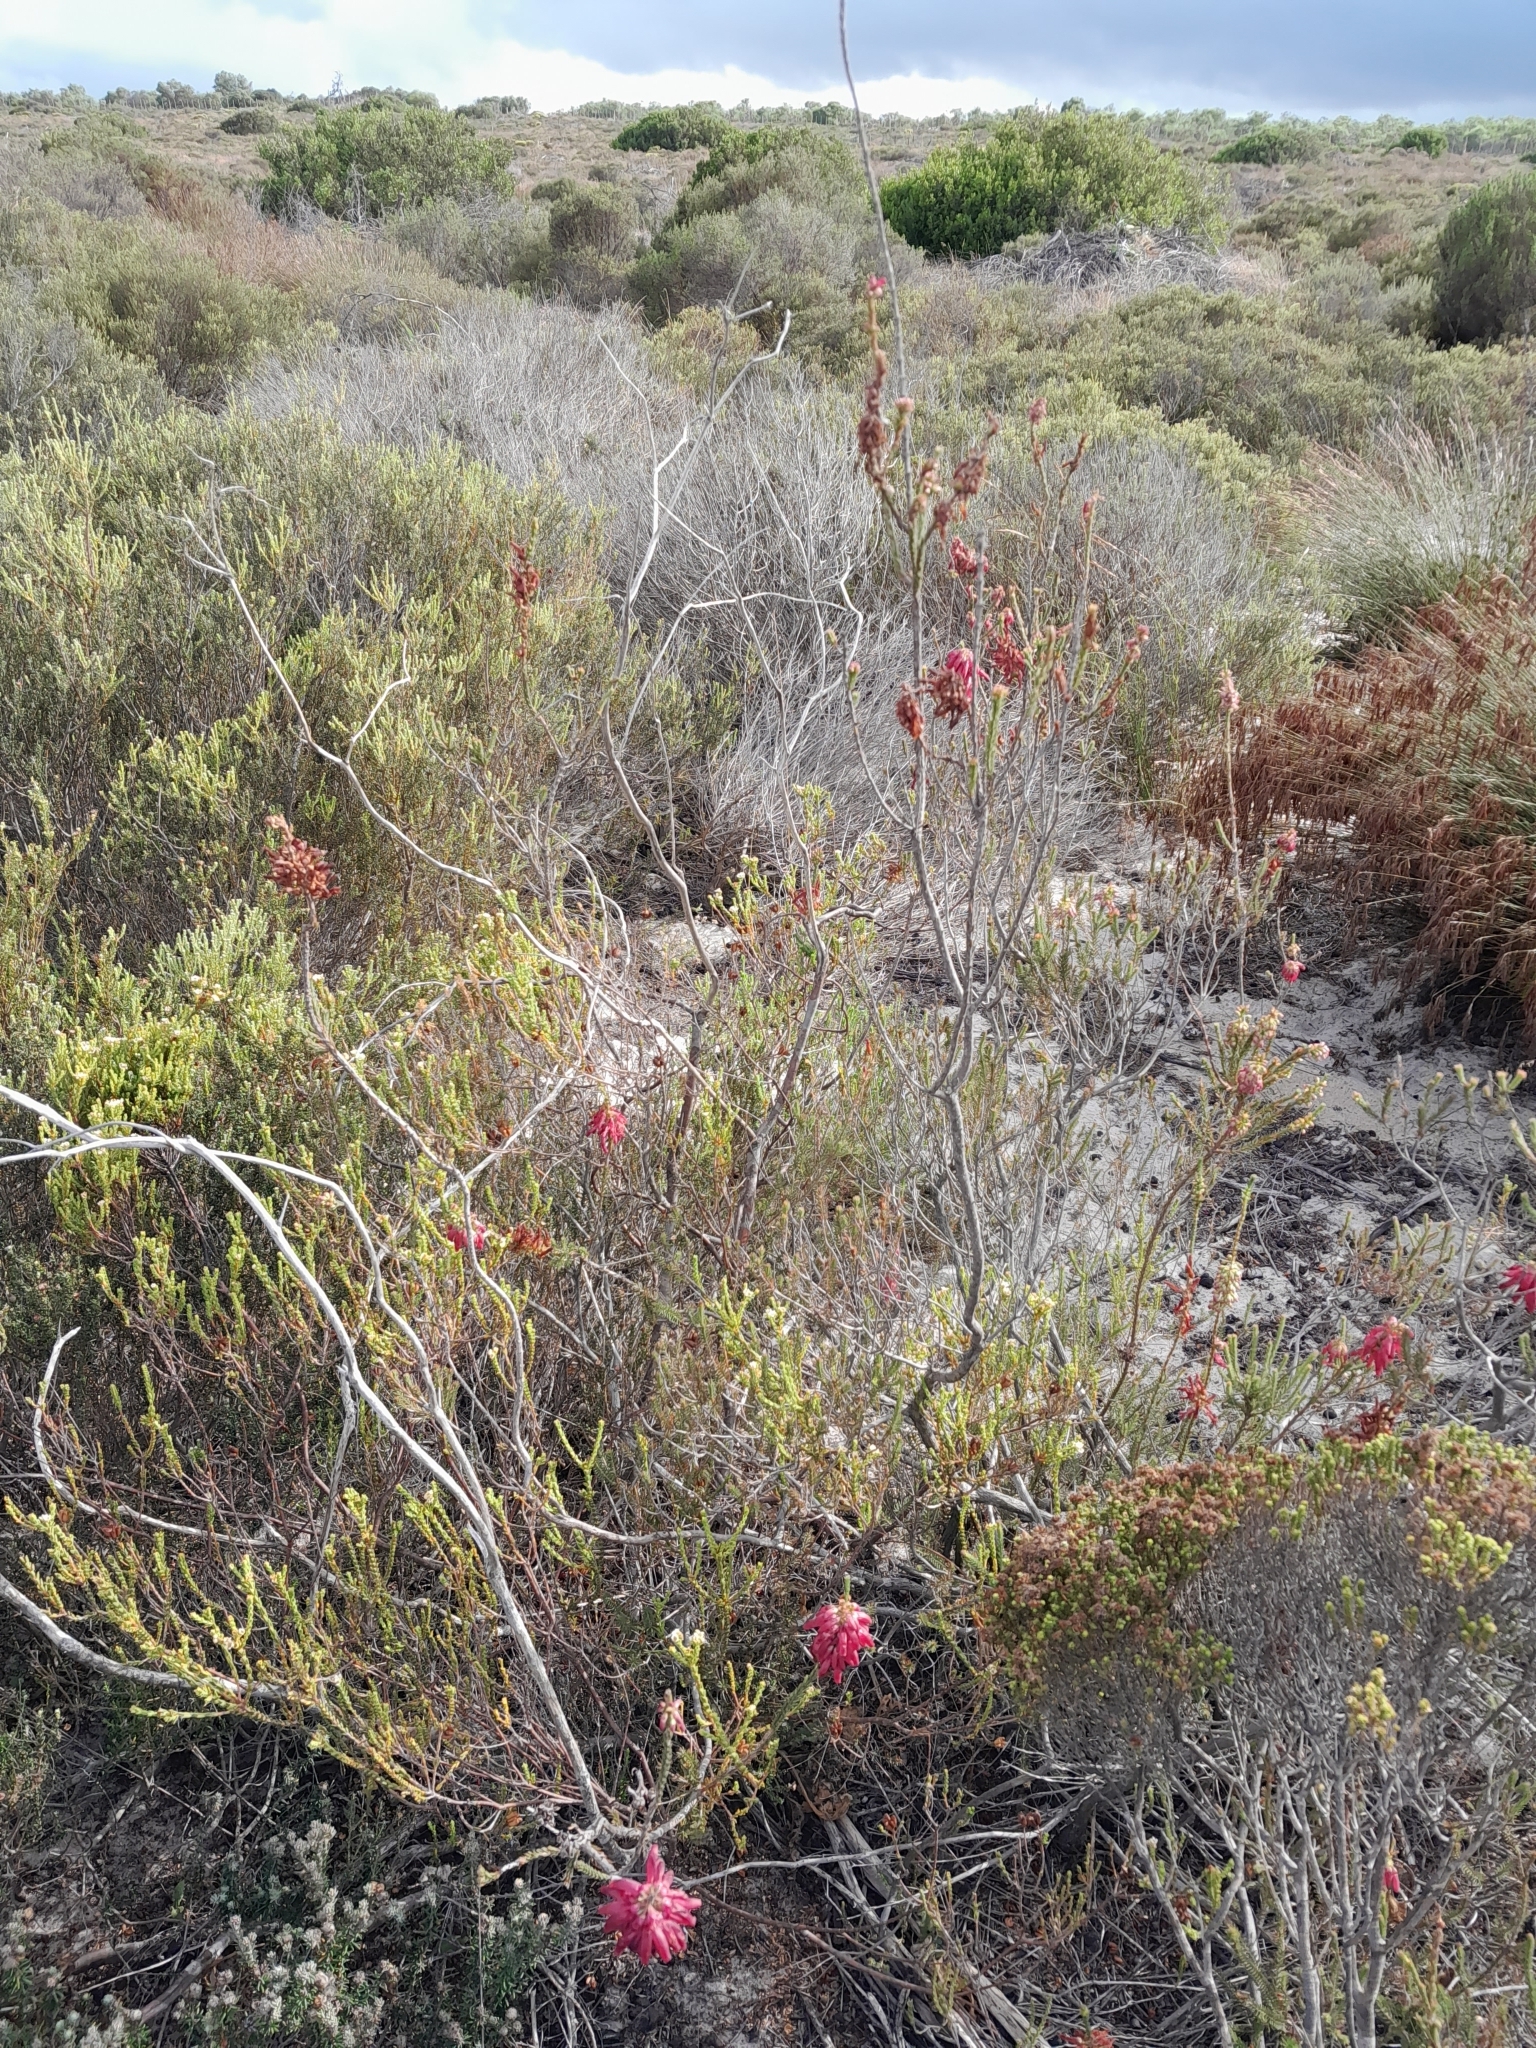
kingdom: Plantae
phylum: Tracheophyta
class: Magnoliopsida
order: Ericales
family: Ericaceae
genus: Erica
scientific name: Erica mammosa
